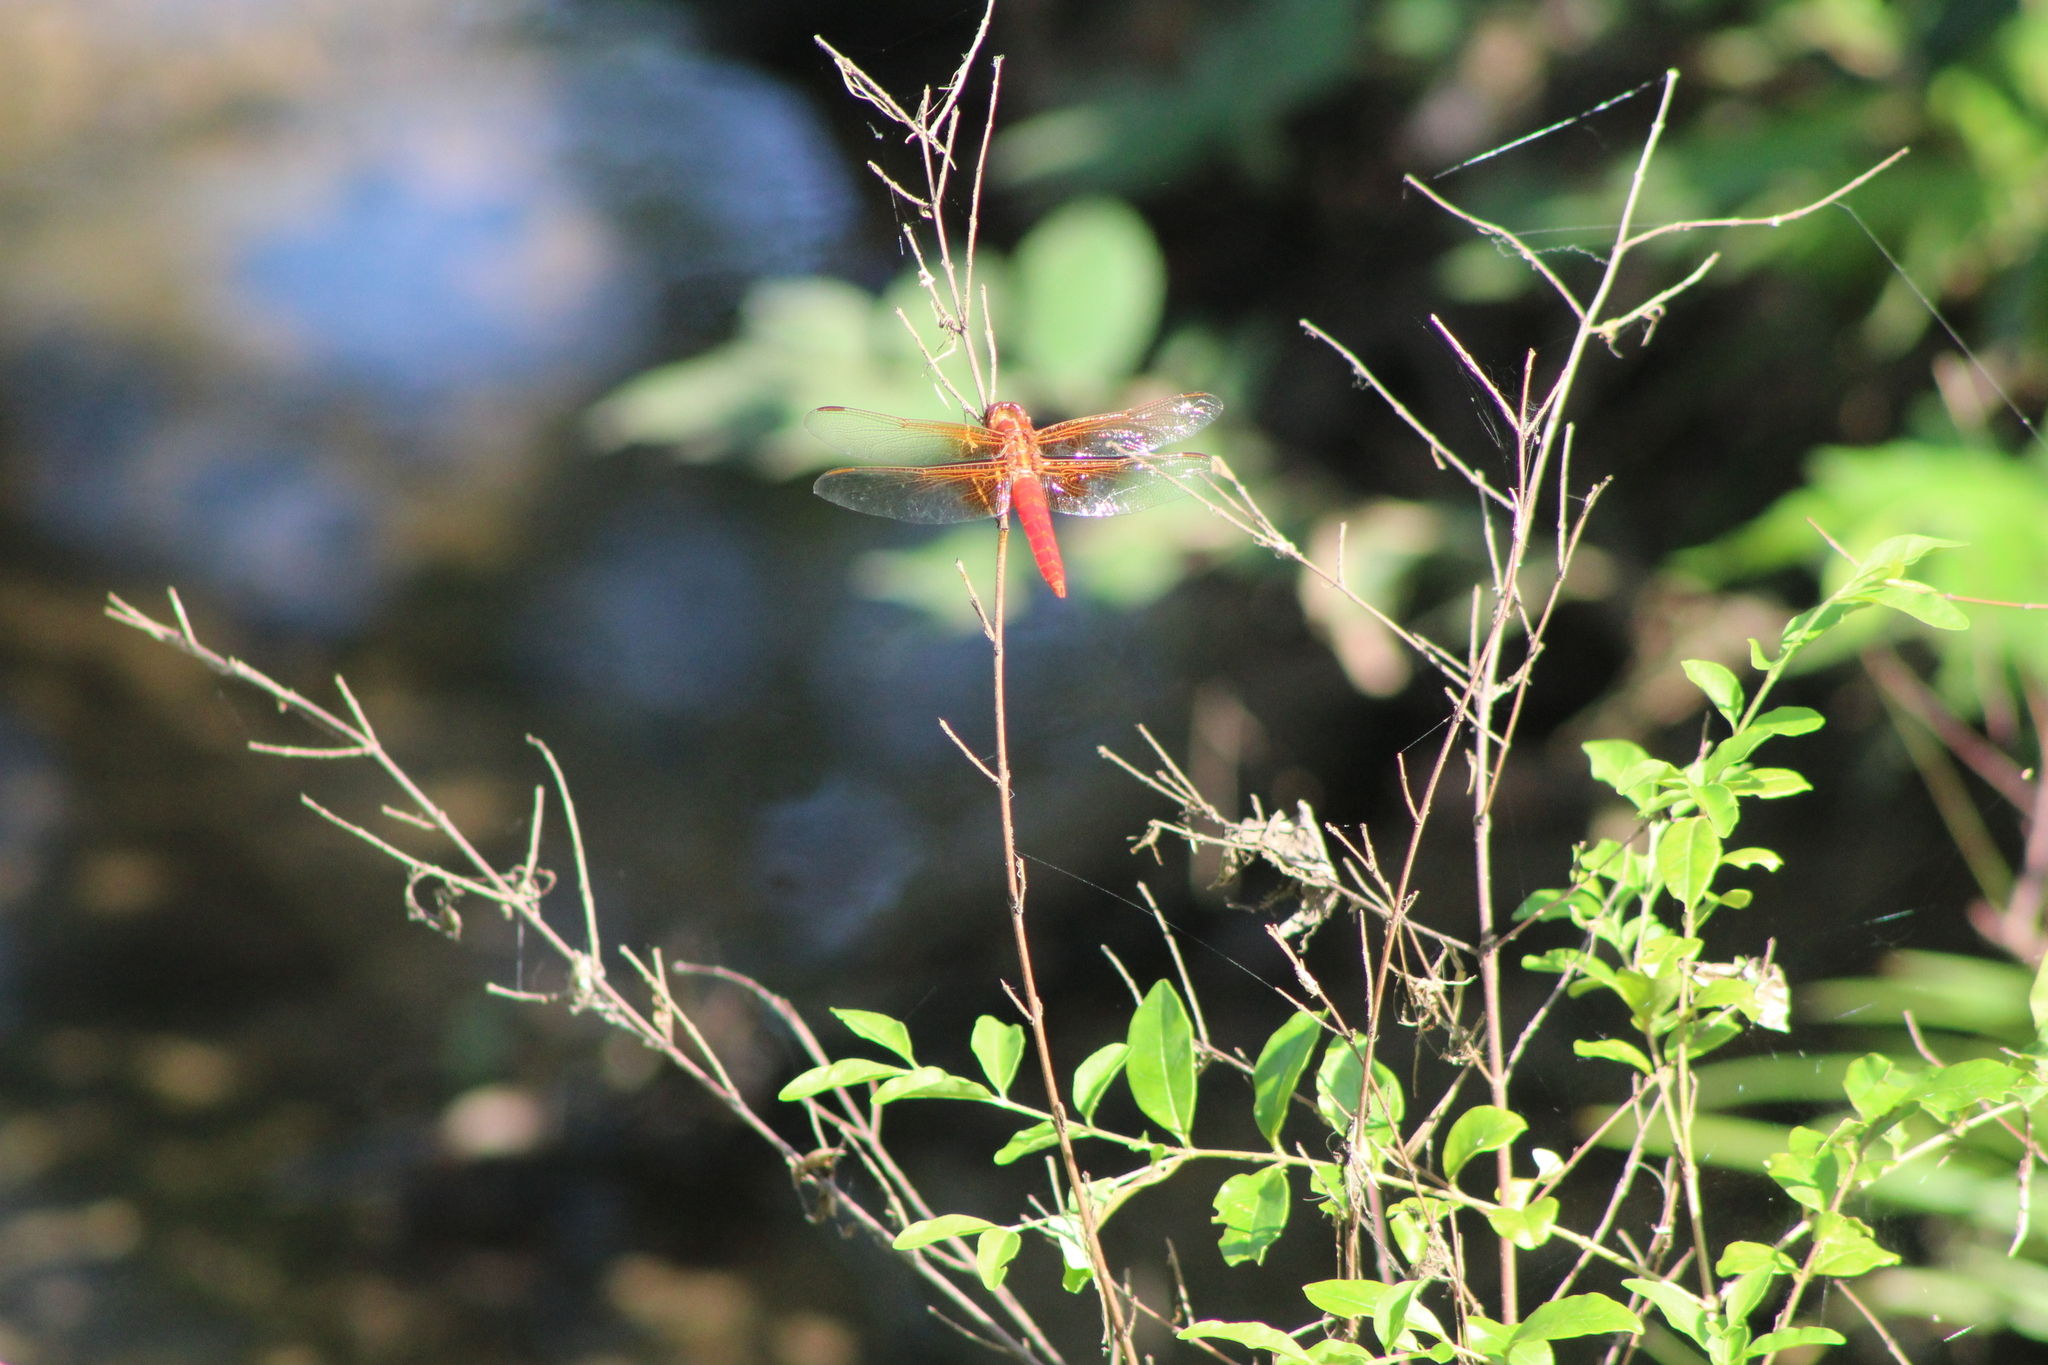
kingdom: Animalia
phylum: Arthropoda
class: Insecta
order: Odonata
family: Libellulidae
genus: Libellula
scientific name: Libellula croceipennis
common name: Neon skimmer
